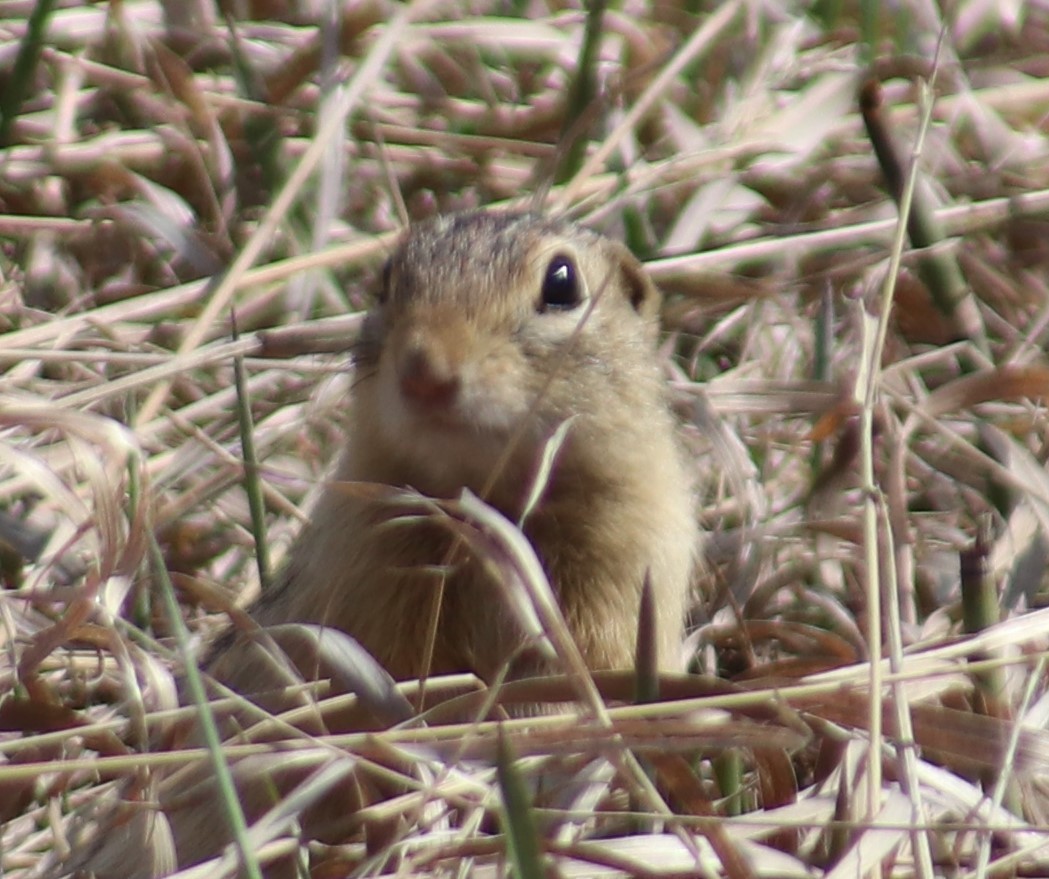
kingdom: Animalia
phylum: Chordata
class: Mammalia
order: Rodentia
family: Sciuridae
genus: Ictidomys
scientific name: Ictidomys tridecemlineatus
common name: Thirteen-lined ground squirrel
